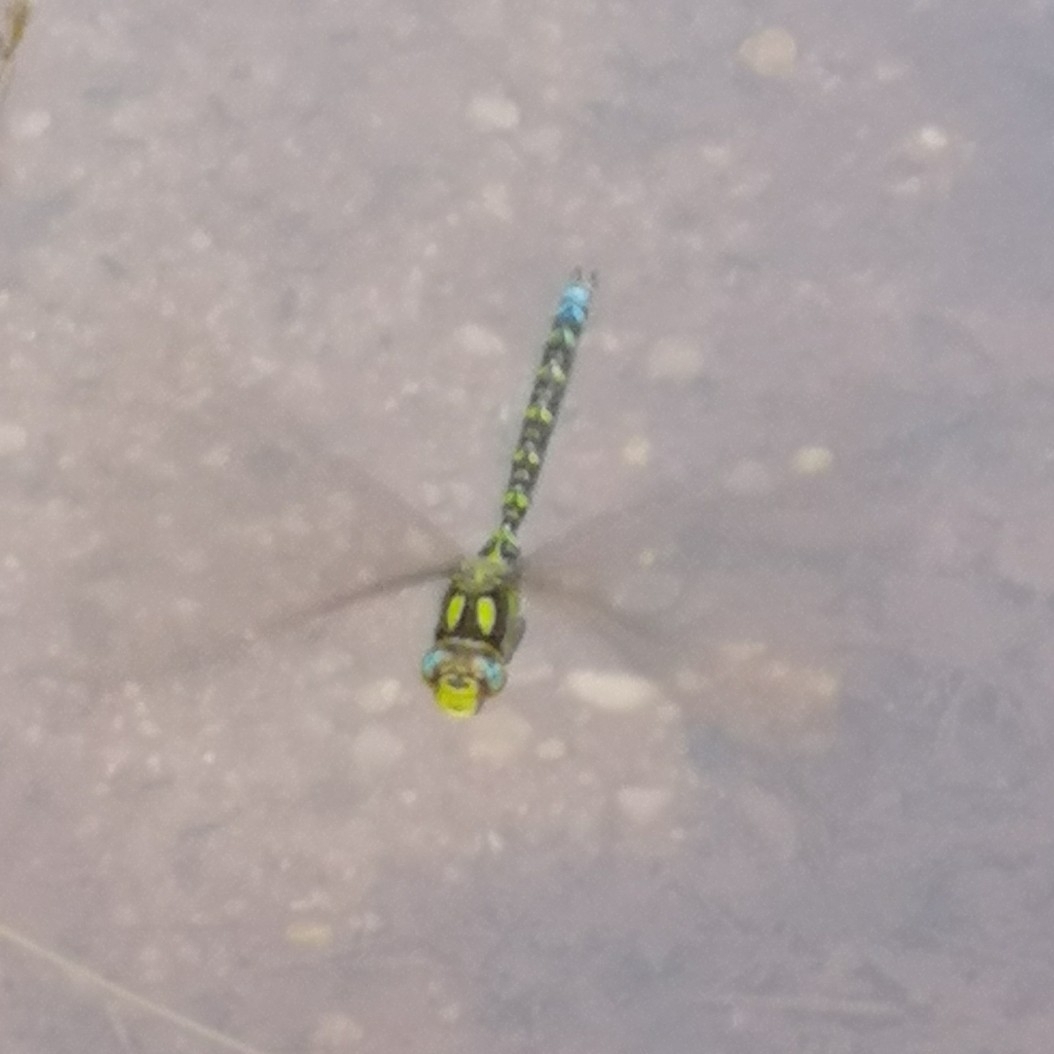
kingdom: Animalia
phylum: Arthropoda
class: Insecta
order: Odonata
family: Aeshnidae
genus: Aeshna
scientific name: Aeshna cyanea
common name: Southern hawker
